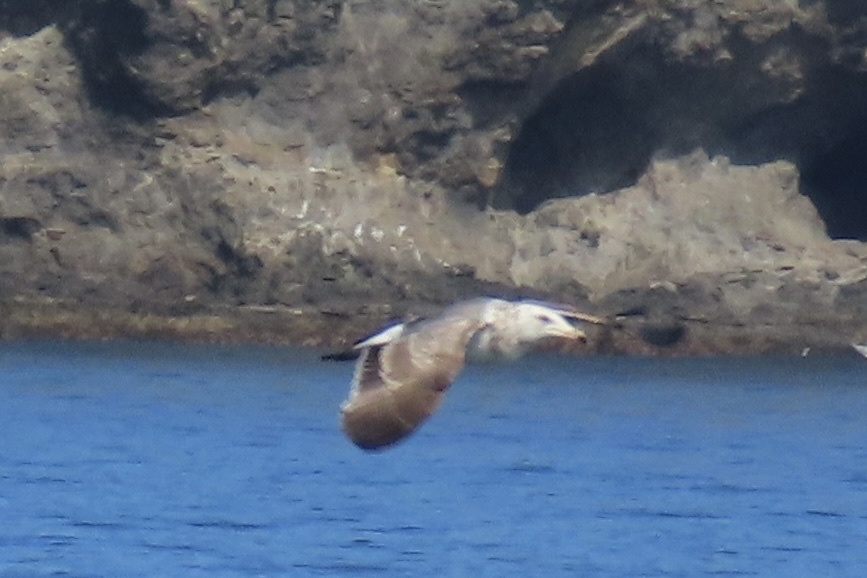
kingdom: Animalia
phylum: Chordata
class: Aves
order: Charadriiformes
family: Laridae
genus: Larus
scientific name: Larus occidentalis
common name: Western gull
